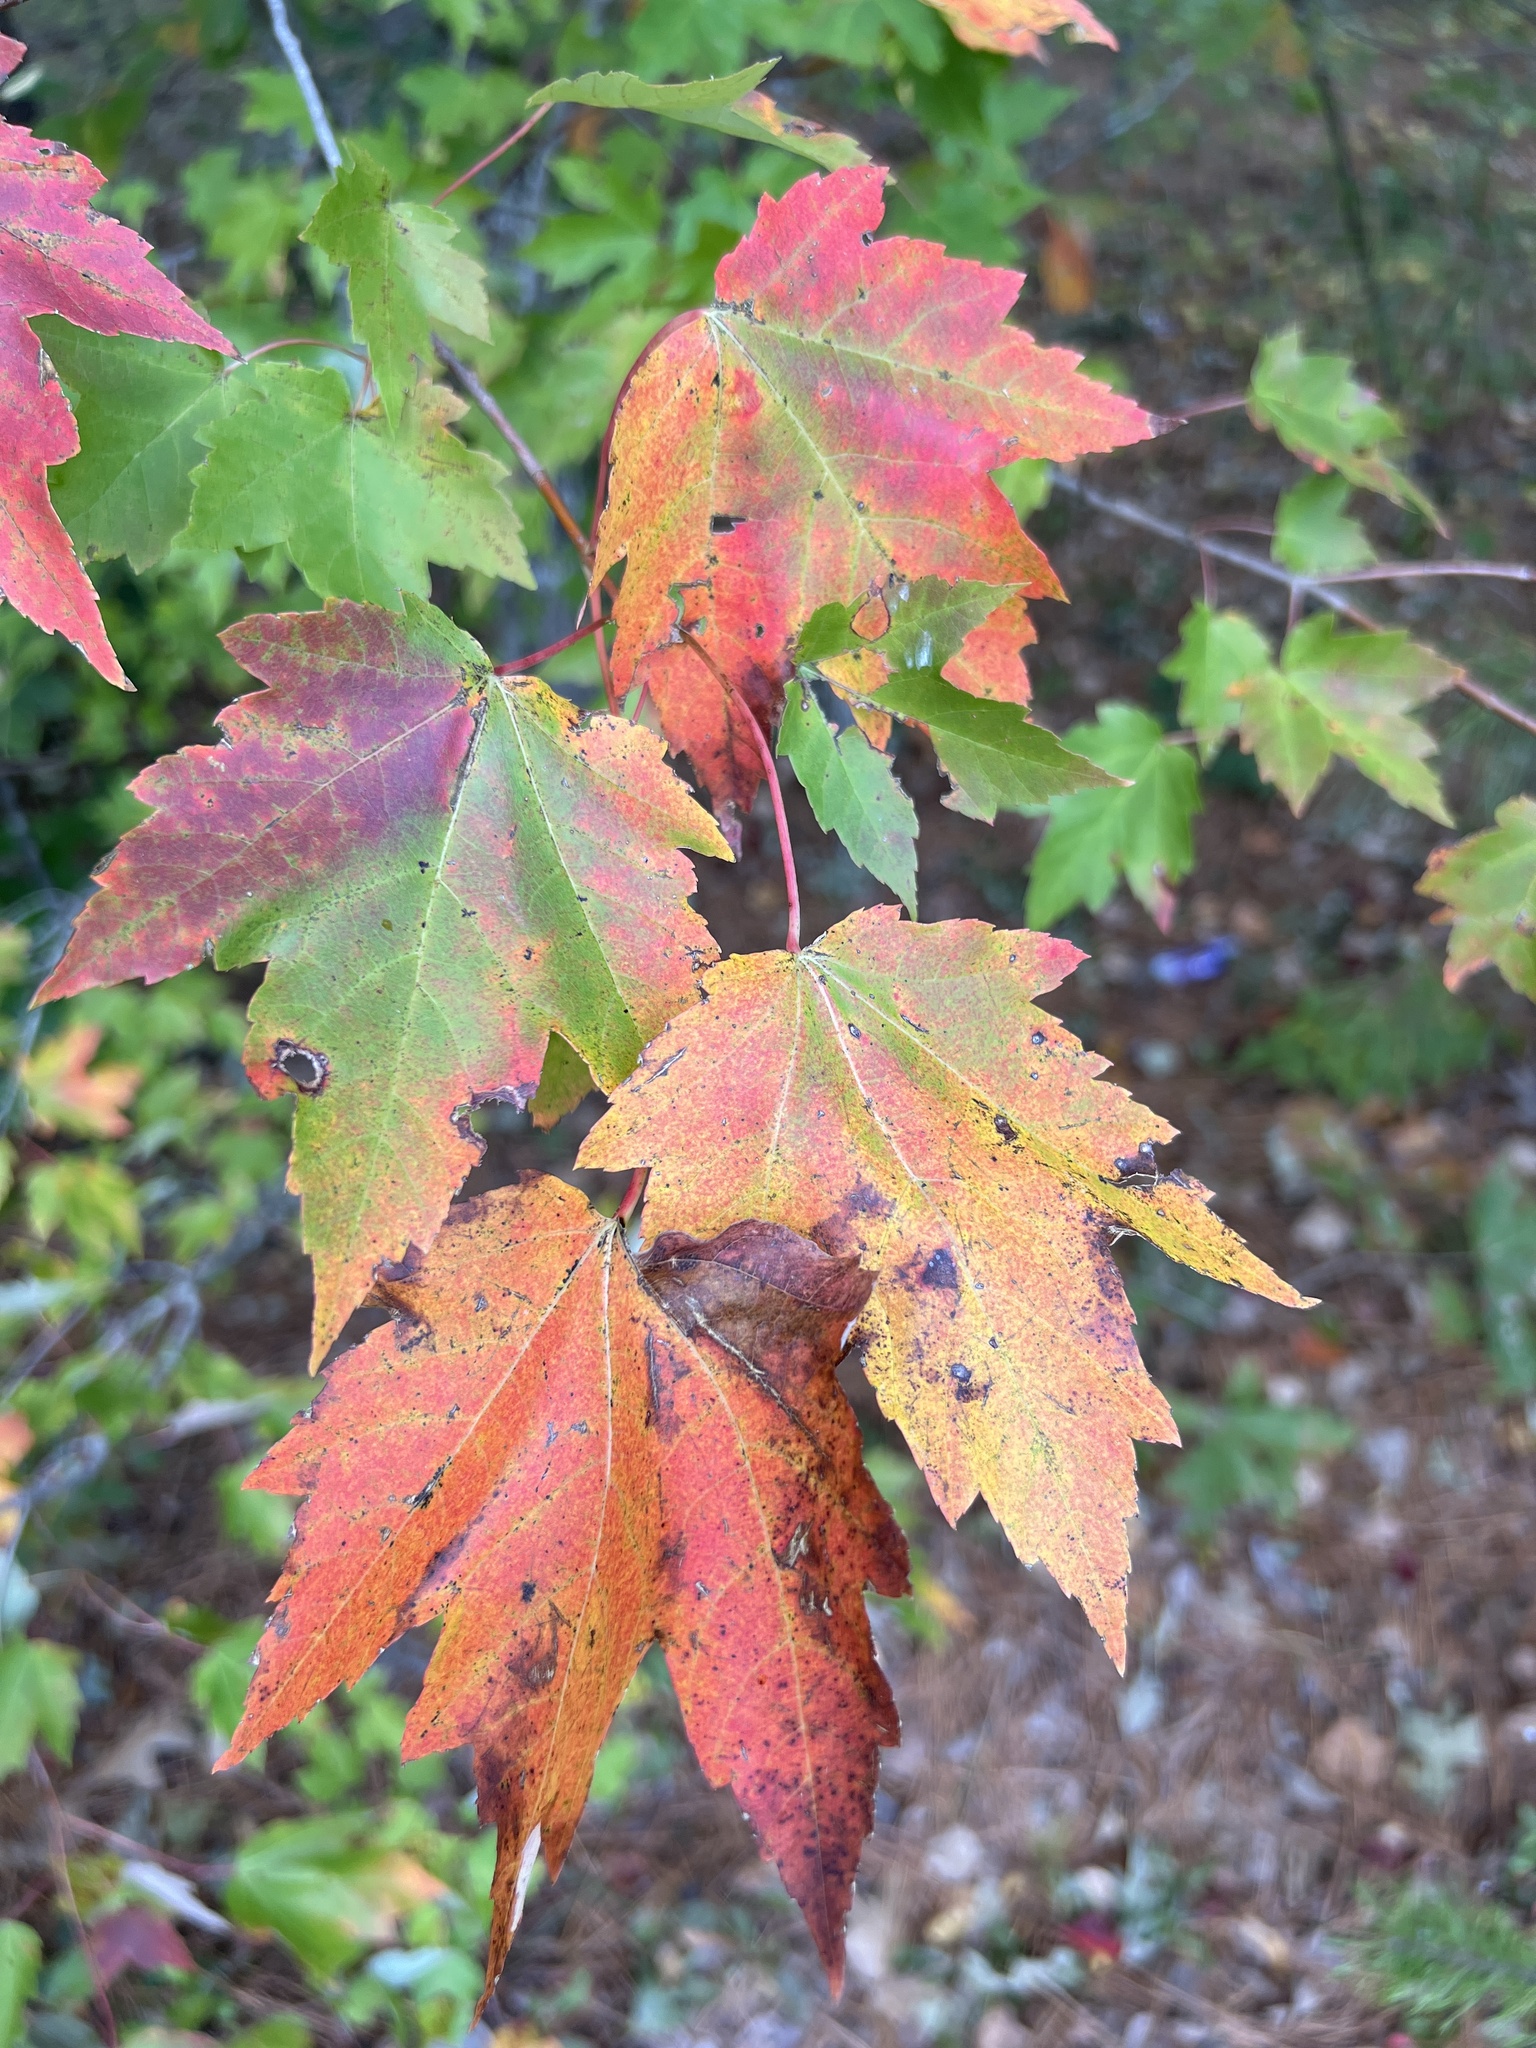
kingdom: Plantae
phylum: Tracheophyta
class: Magnoliopsida
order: Sapindales
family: Sapindaceae
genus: Acer
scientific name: Acer rubrum
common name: Red maple
